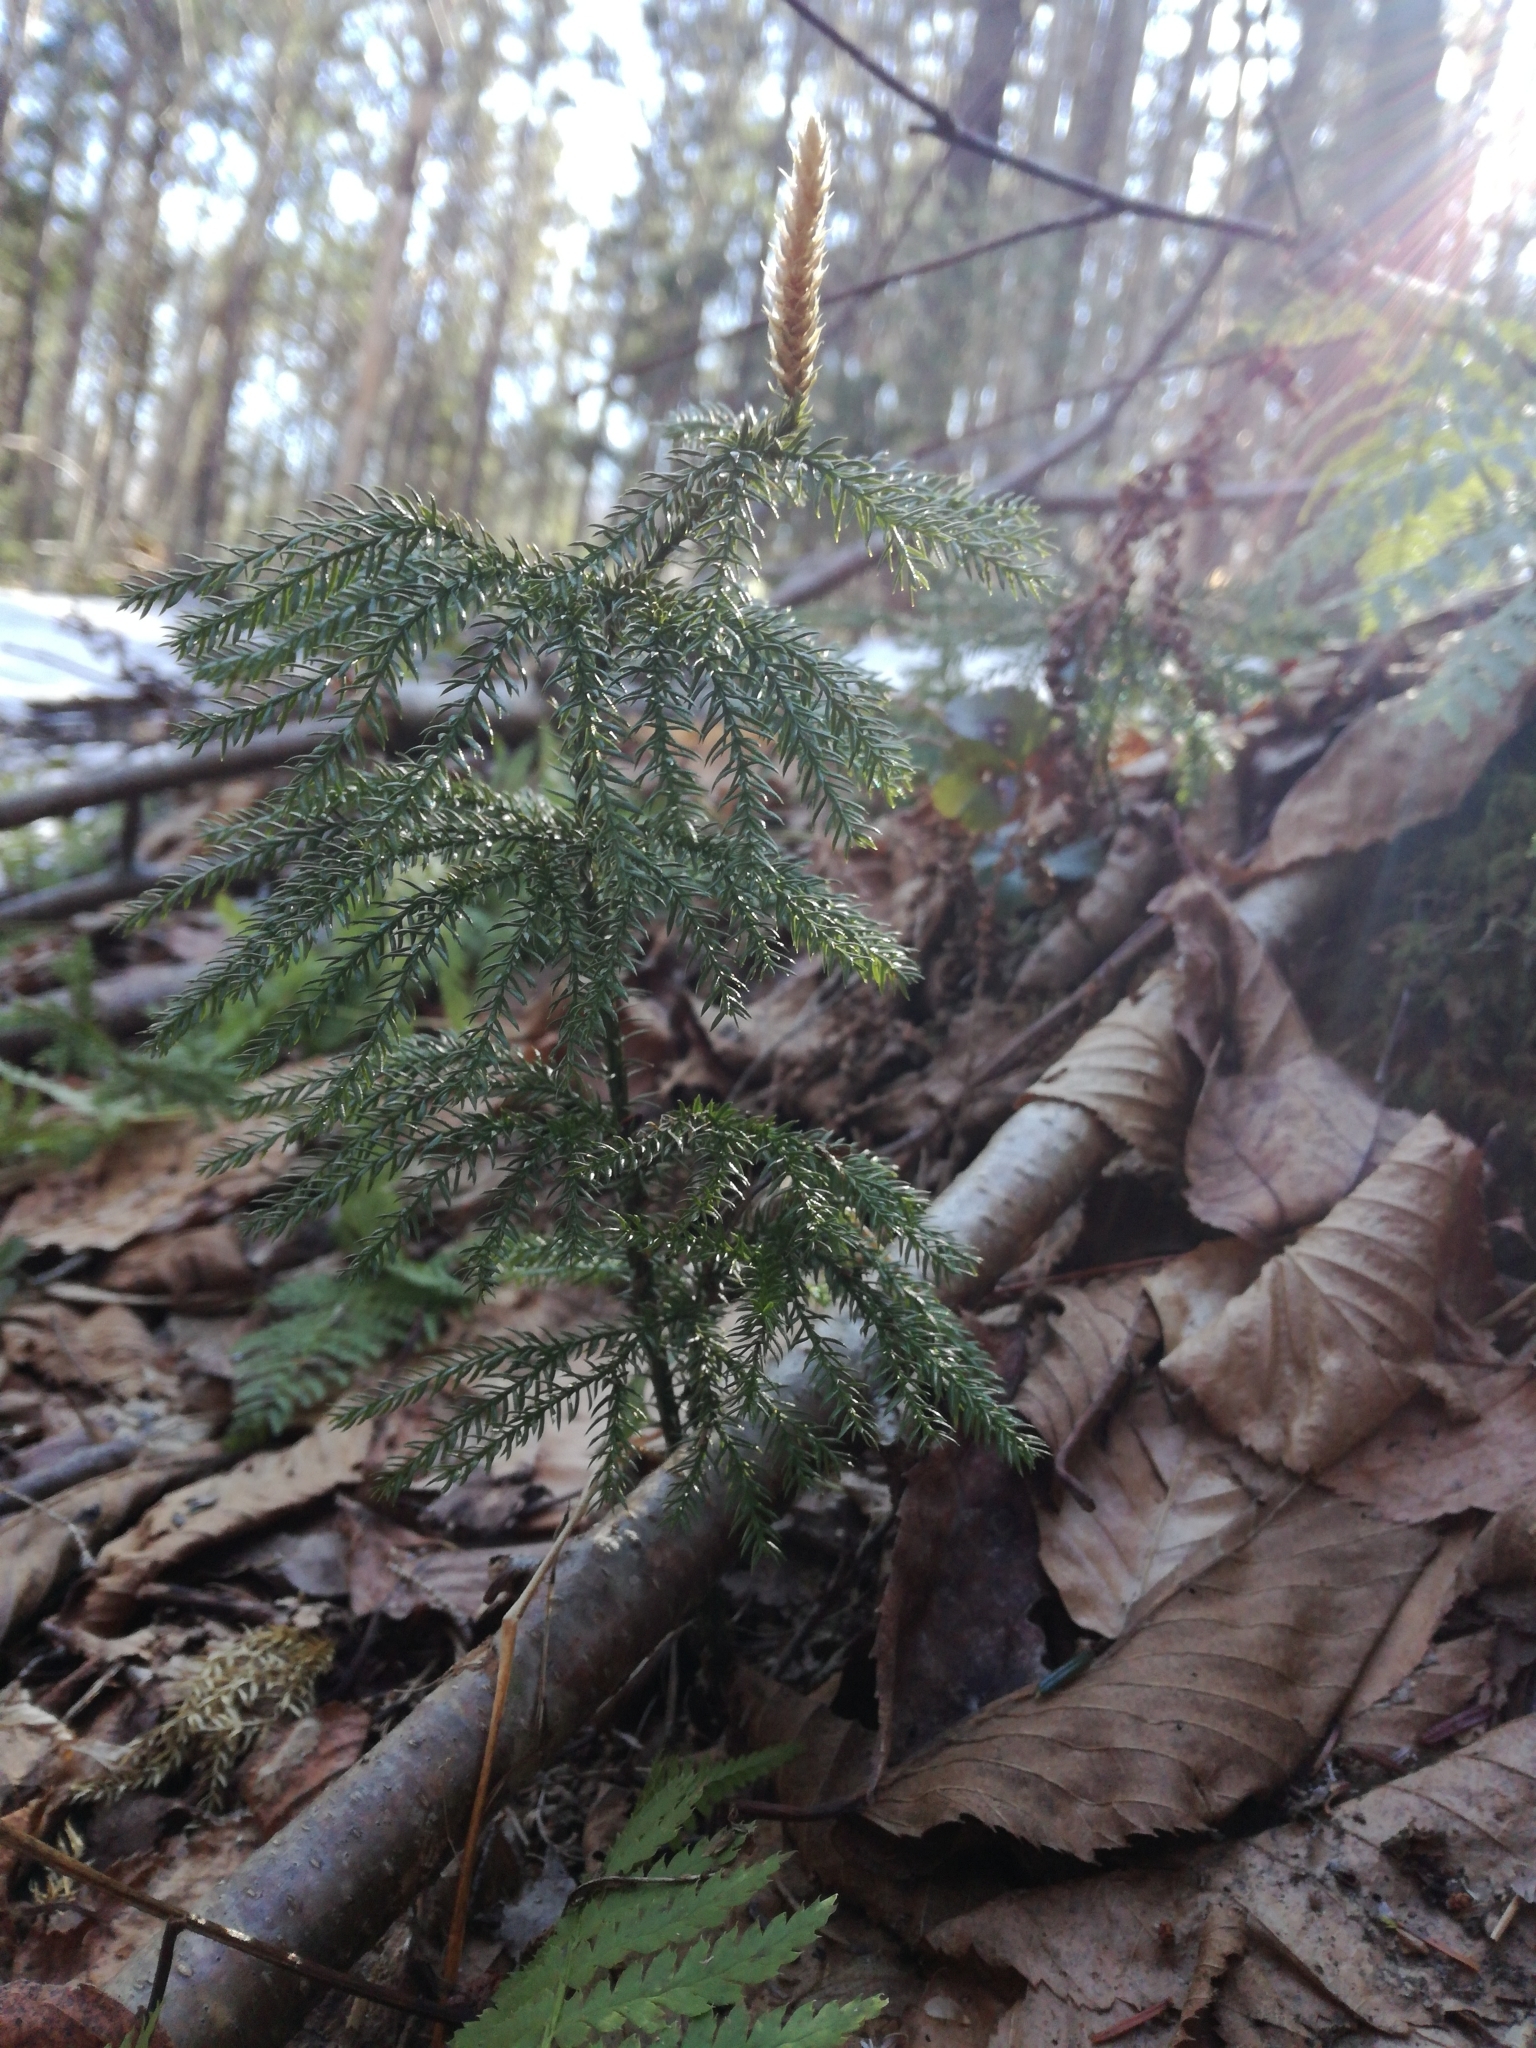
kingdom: Plantae
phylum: Tracheophyta
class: Lycopodiopsida
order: Lycopodiales
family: Lycopodiaceae
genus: Dendrolycopodium
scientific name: Dendrolycopodium dendroideum
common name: Northern tree-clubmoss
